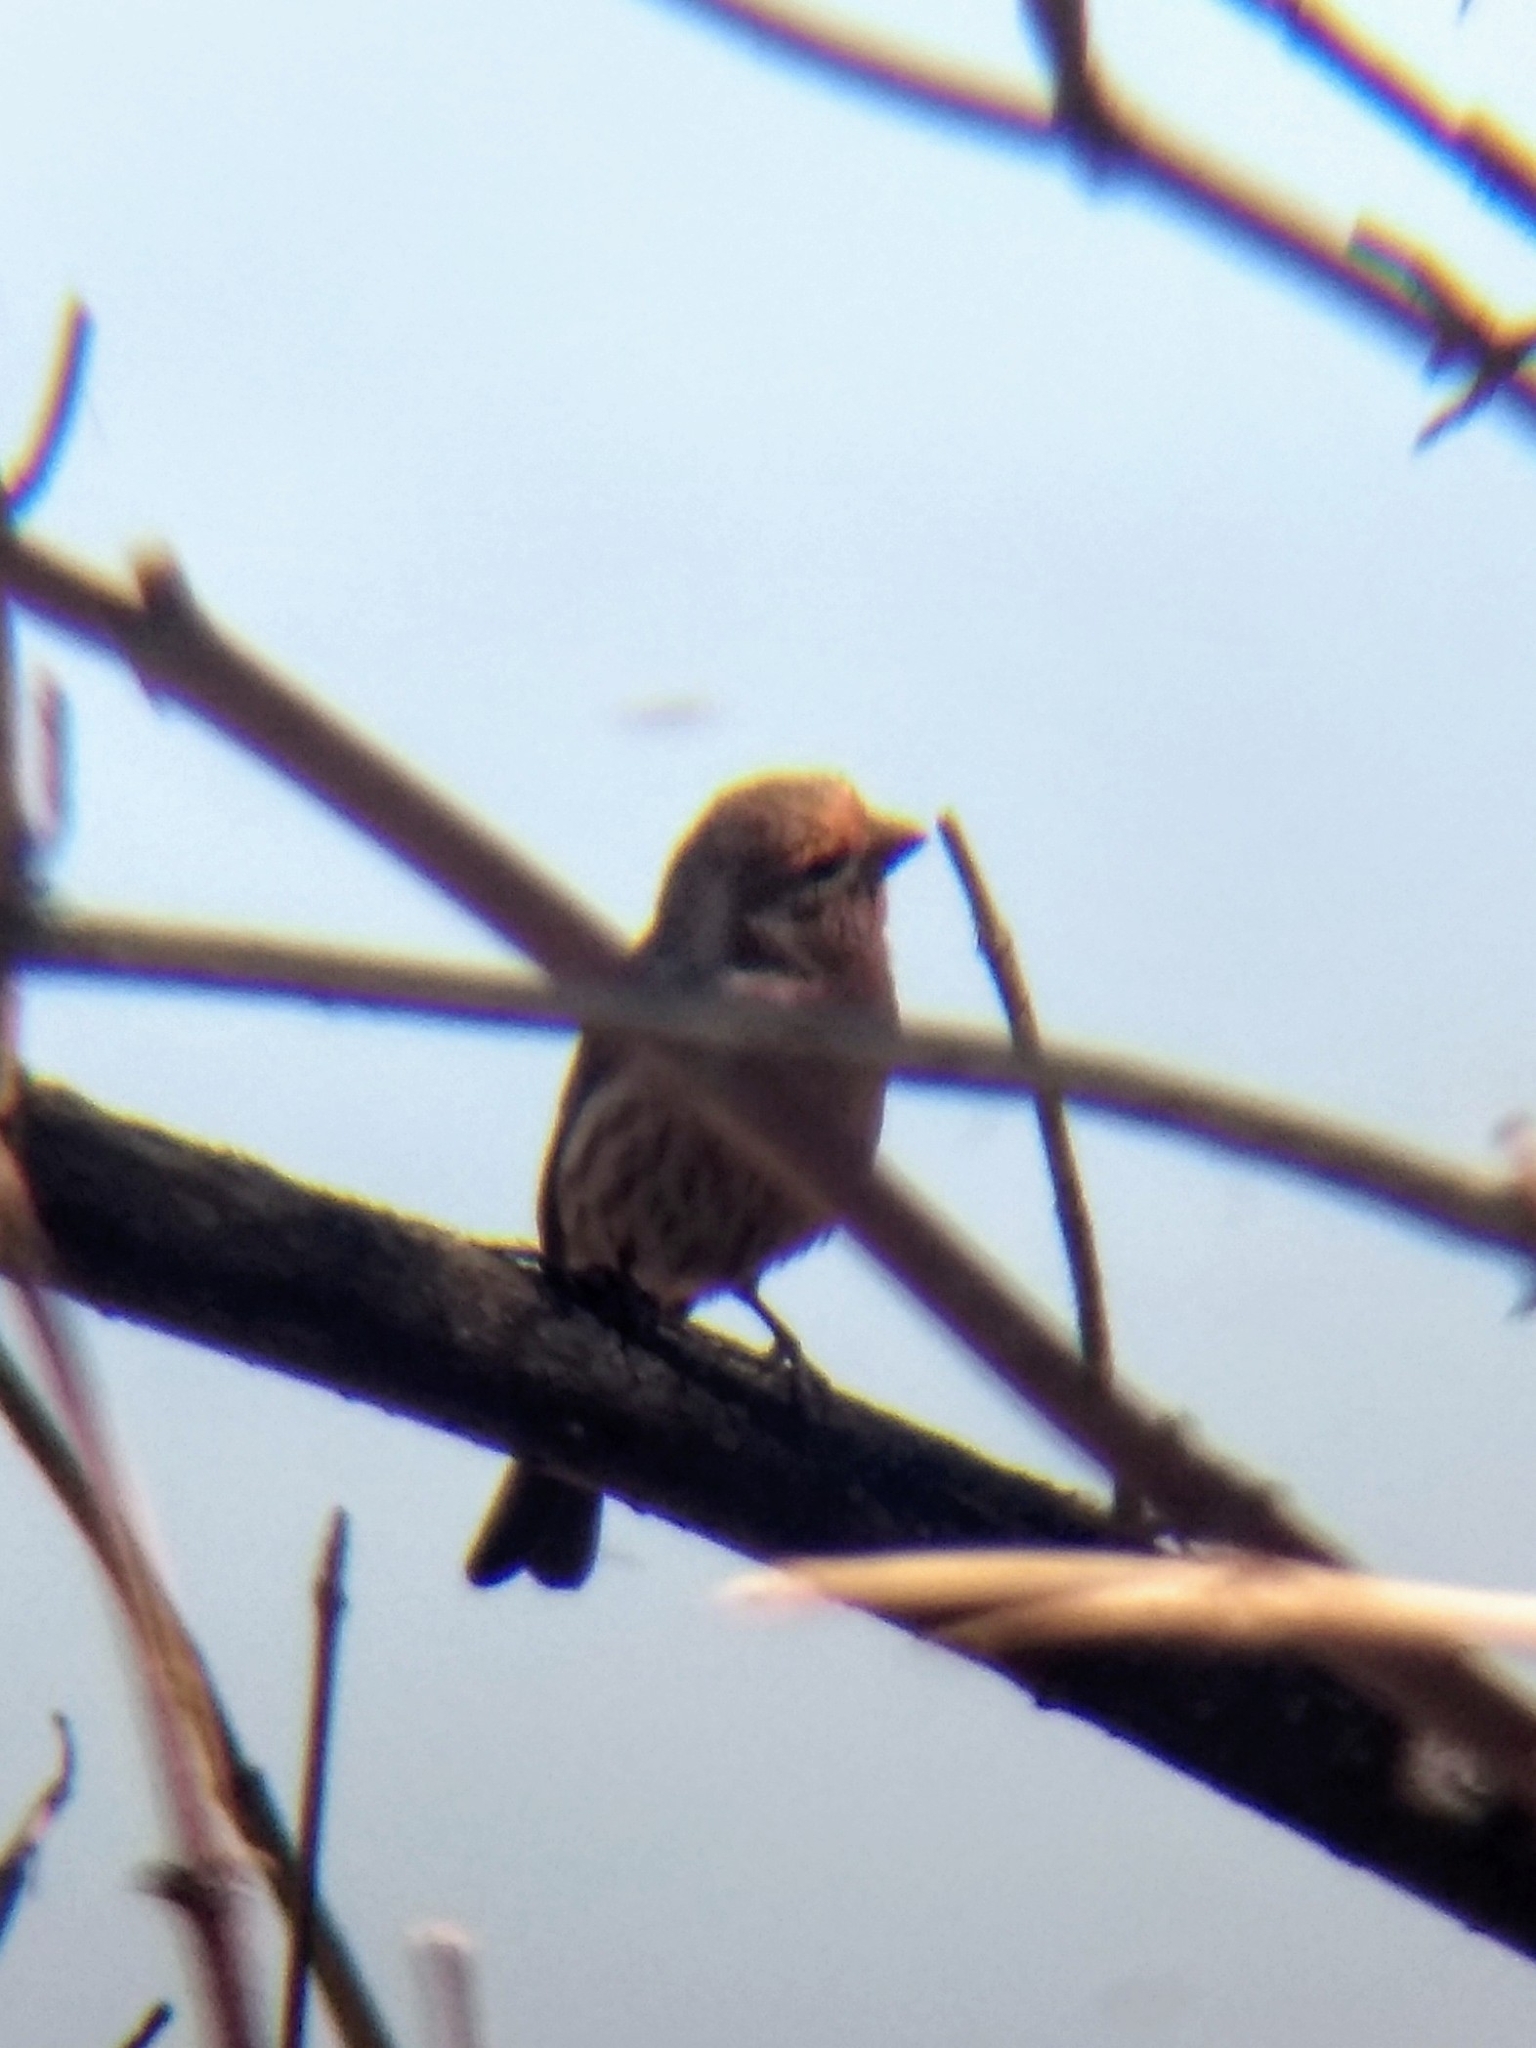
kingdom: Animalia
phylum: Chordata
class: Aves
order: Passeriformes
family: Fringillidae
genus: Haemorhous
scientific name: Haemorhous mexicanus
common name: House finch
